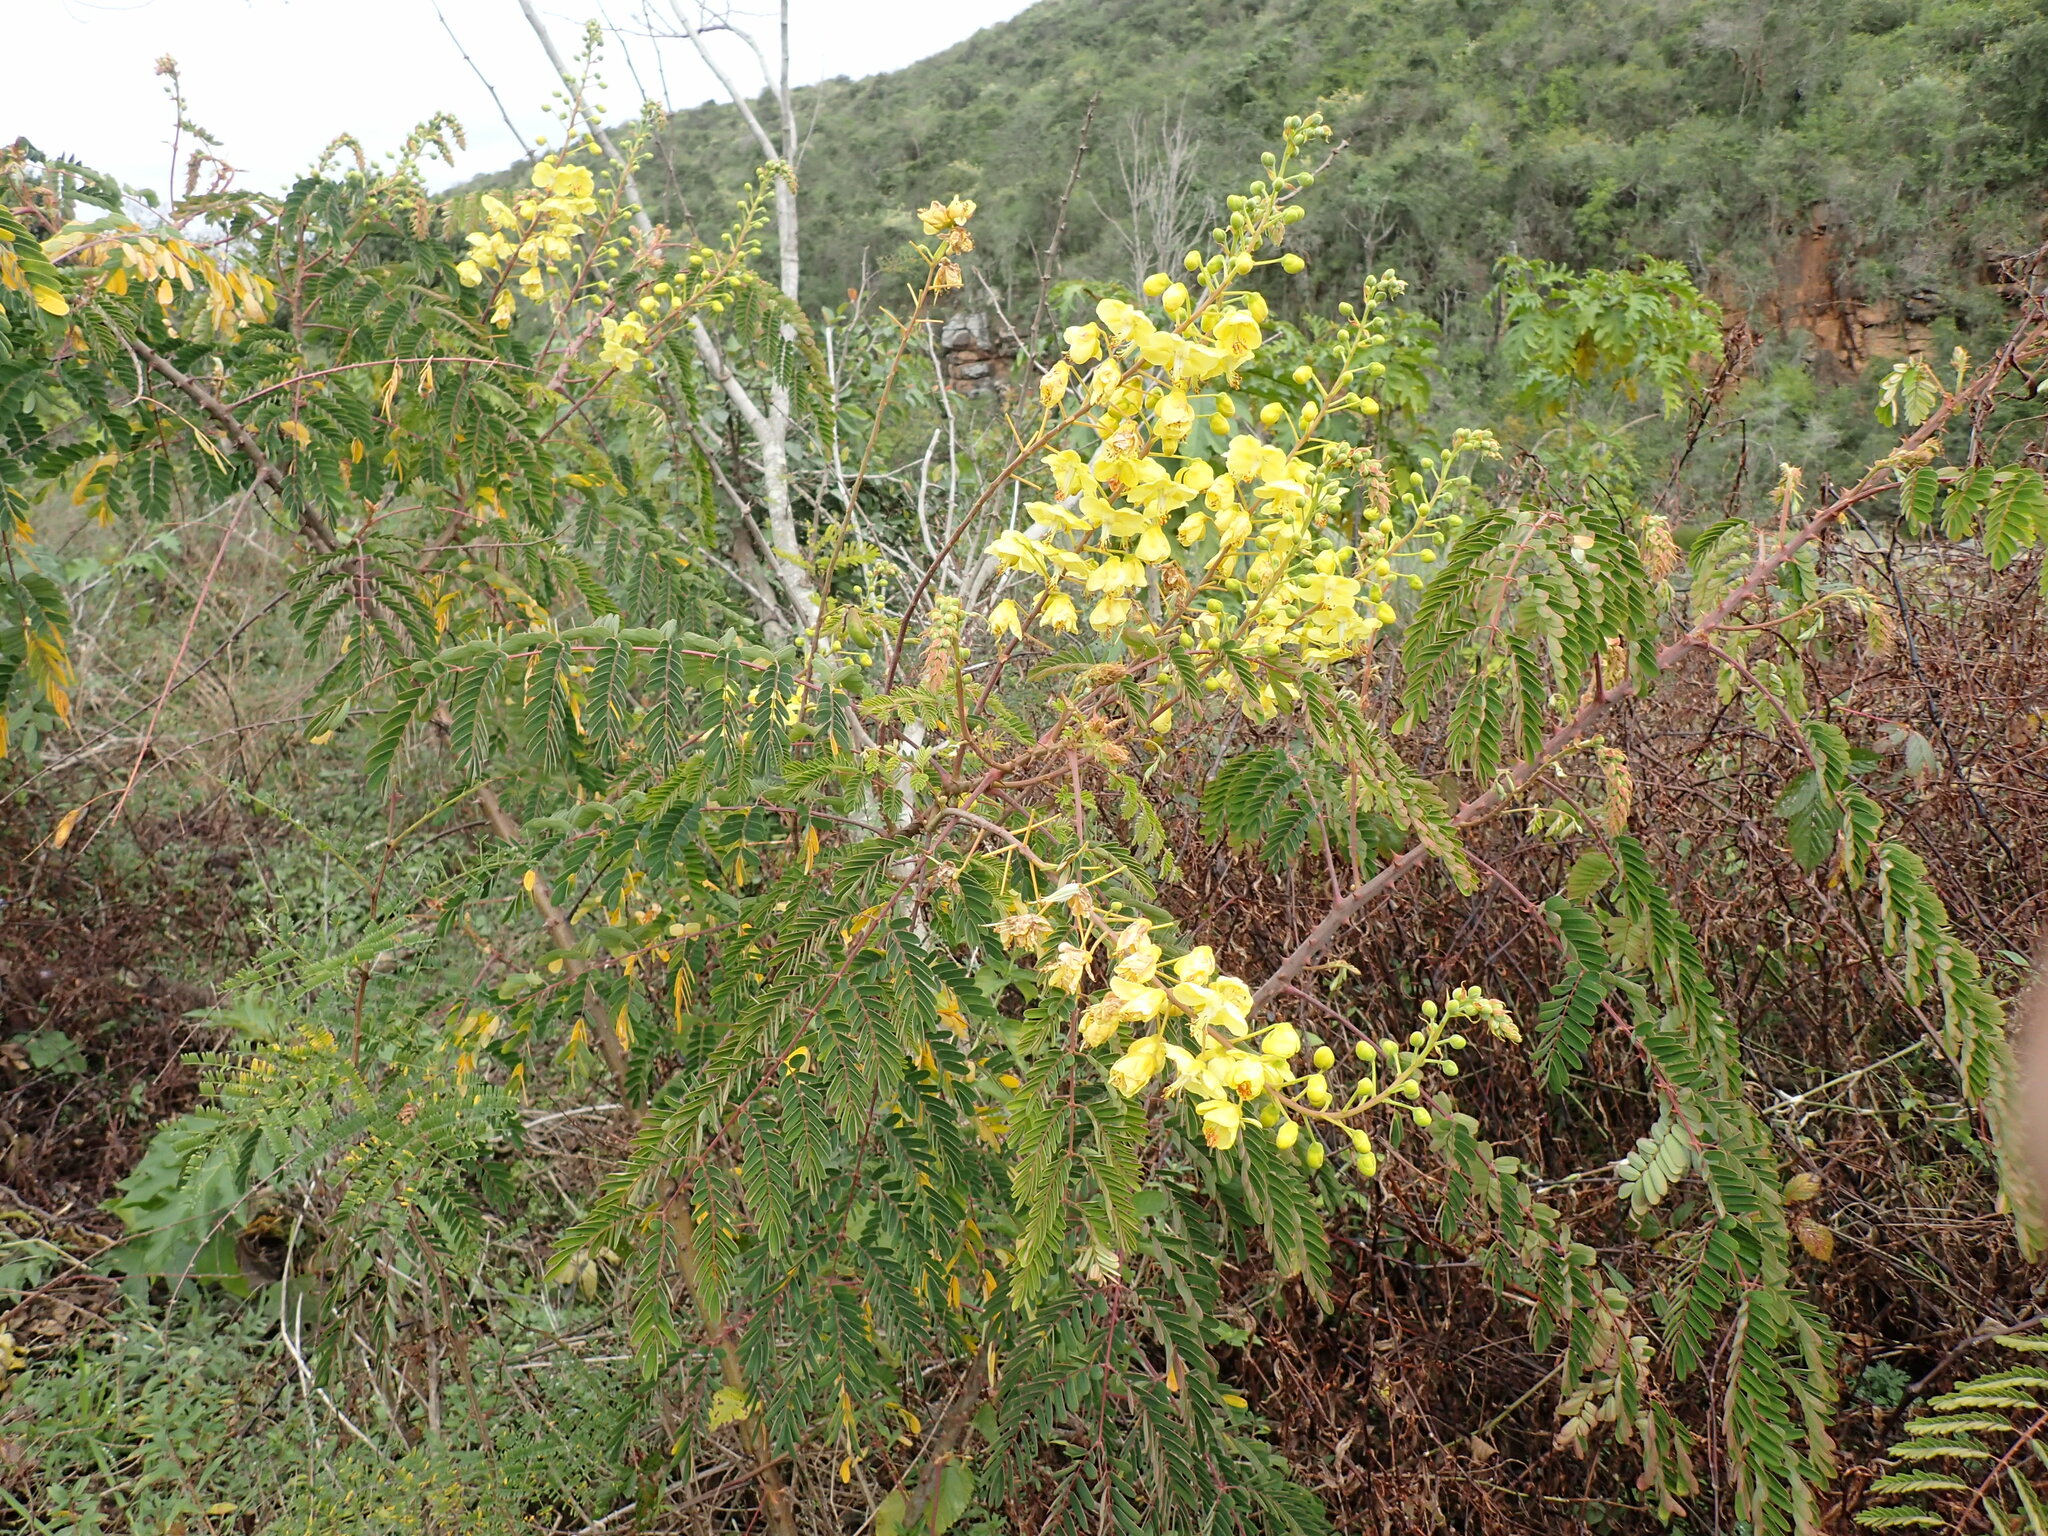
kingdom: Plantae
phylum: Tracheophyta
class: Magnoliopsida
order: Fabales
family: Fabaceae
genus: Biancaea
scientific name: Biancaea decapetala
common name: Cat's claw
